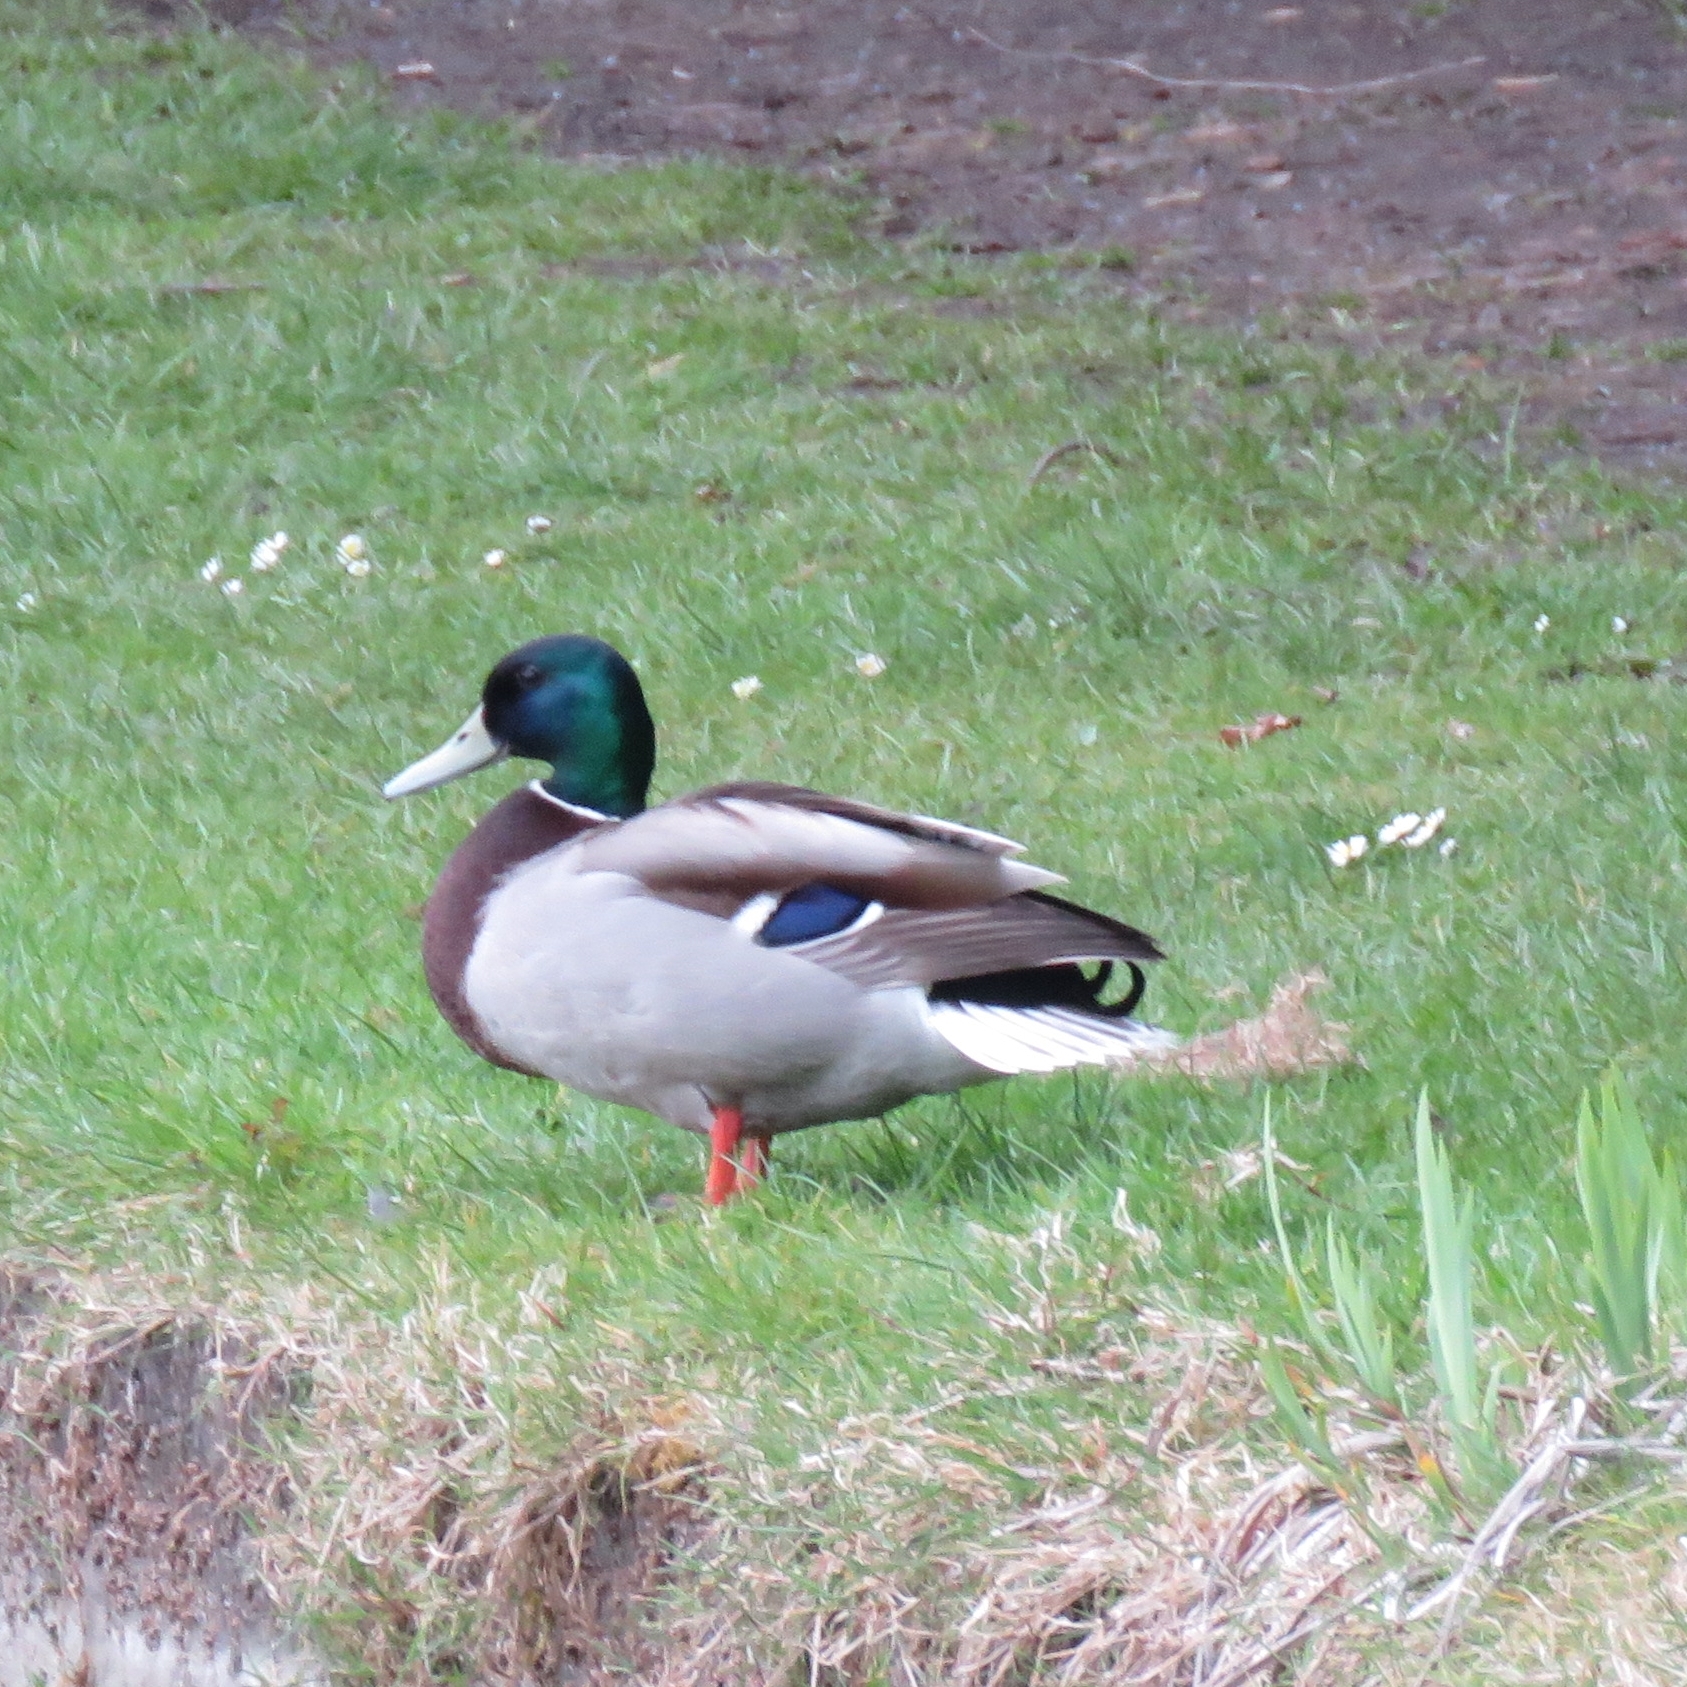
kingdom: Animalia
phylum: Chordata
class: Aves
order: Anseriformes
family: Anatidae
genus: Anas
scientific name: Anas platyrhynchos
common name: Mallard
